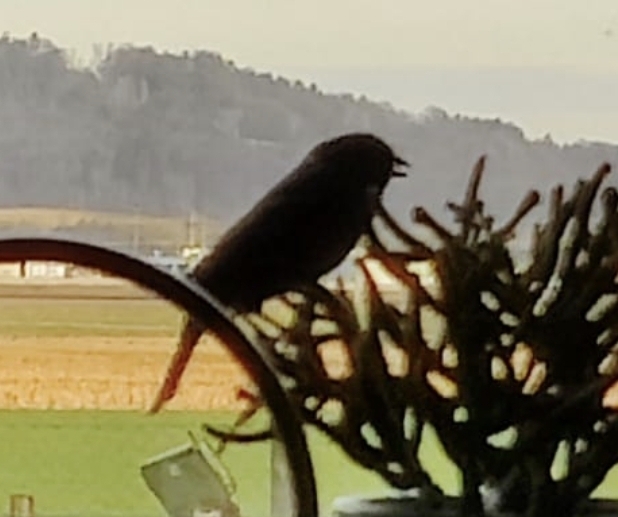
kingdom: Animalia
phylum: Chordata
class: Aves
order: Passeriformes
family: Muscicapidae
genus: Phoenicurus
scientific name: Phoenicurus ochruros
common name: Black redstart
